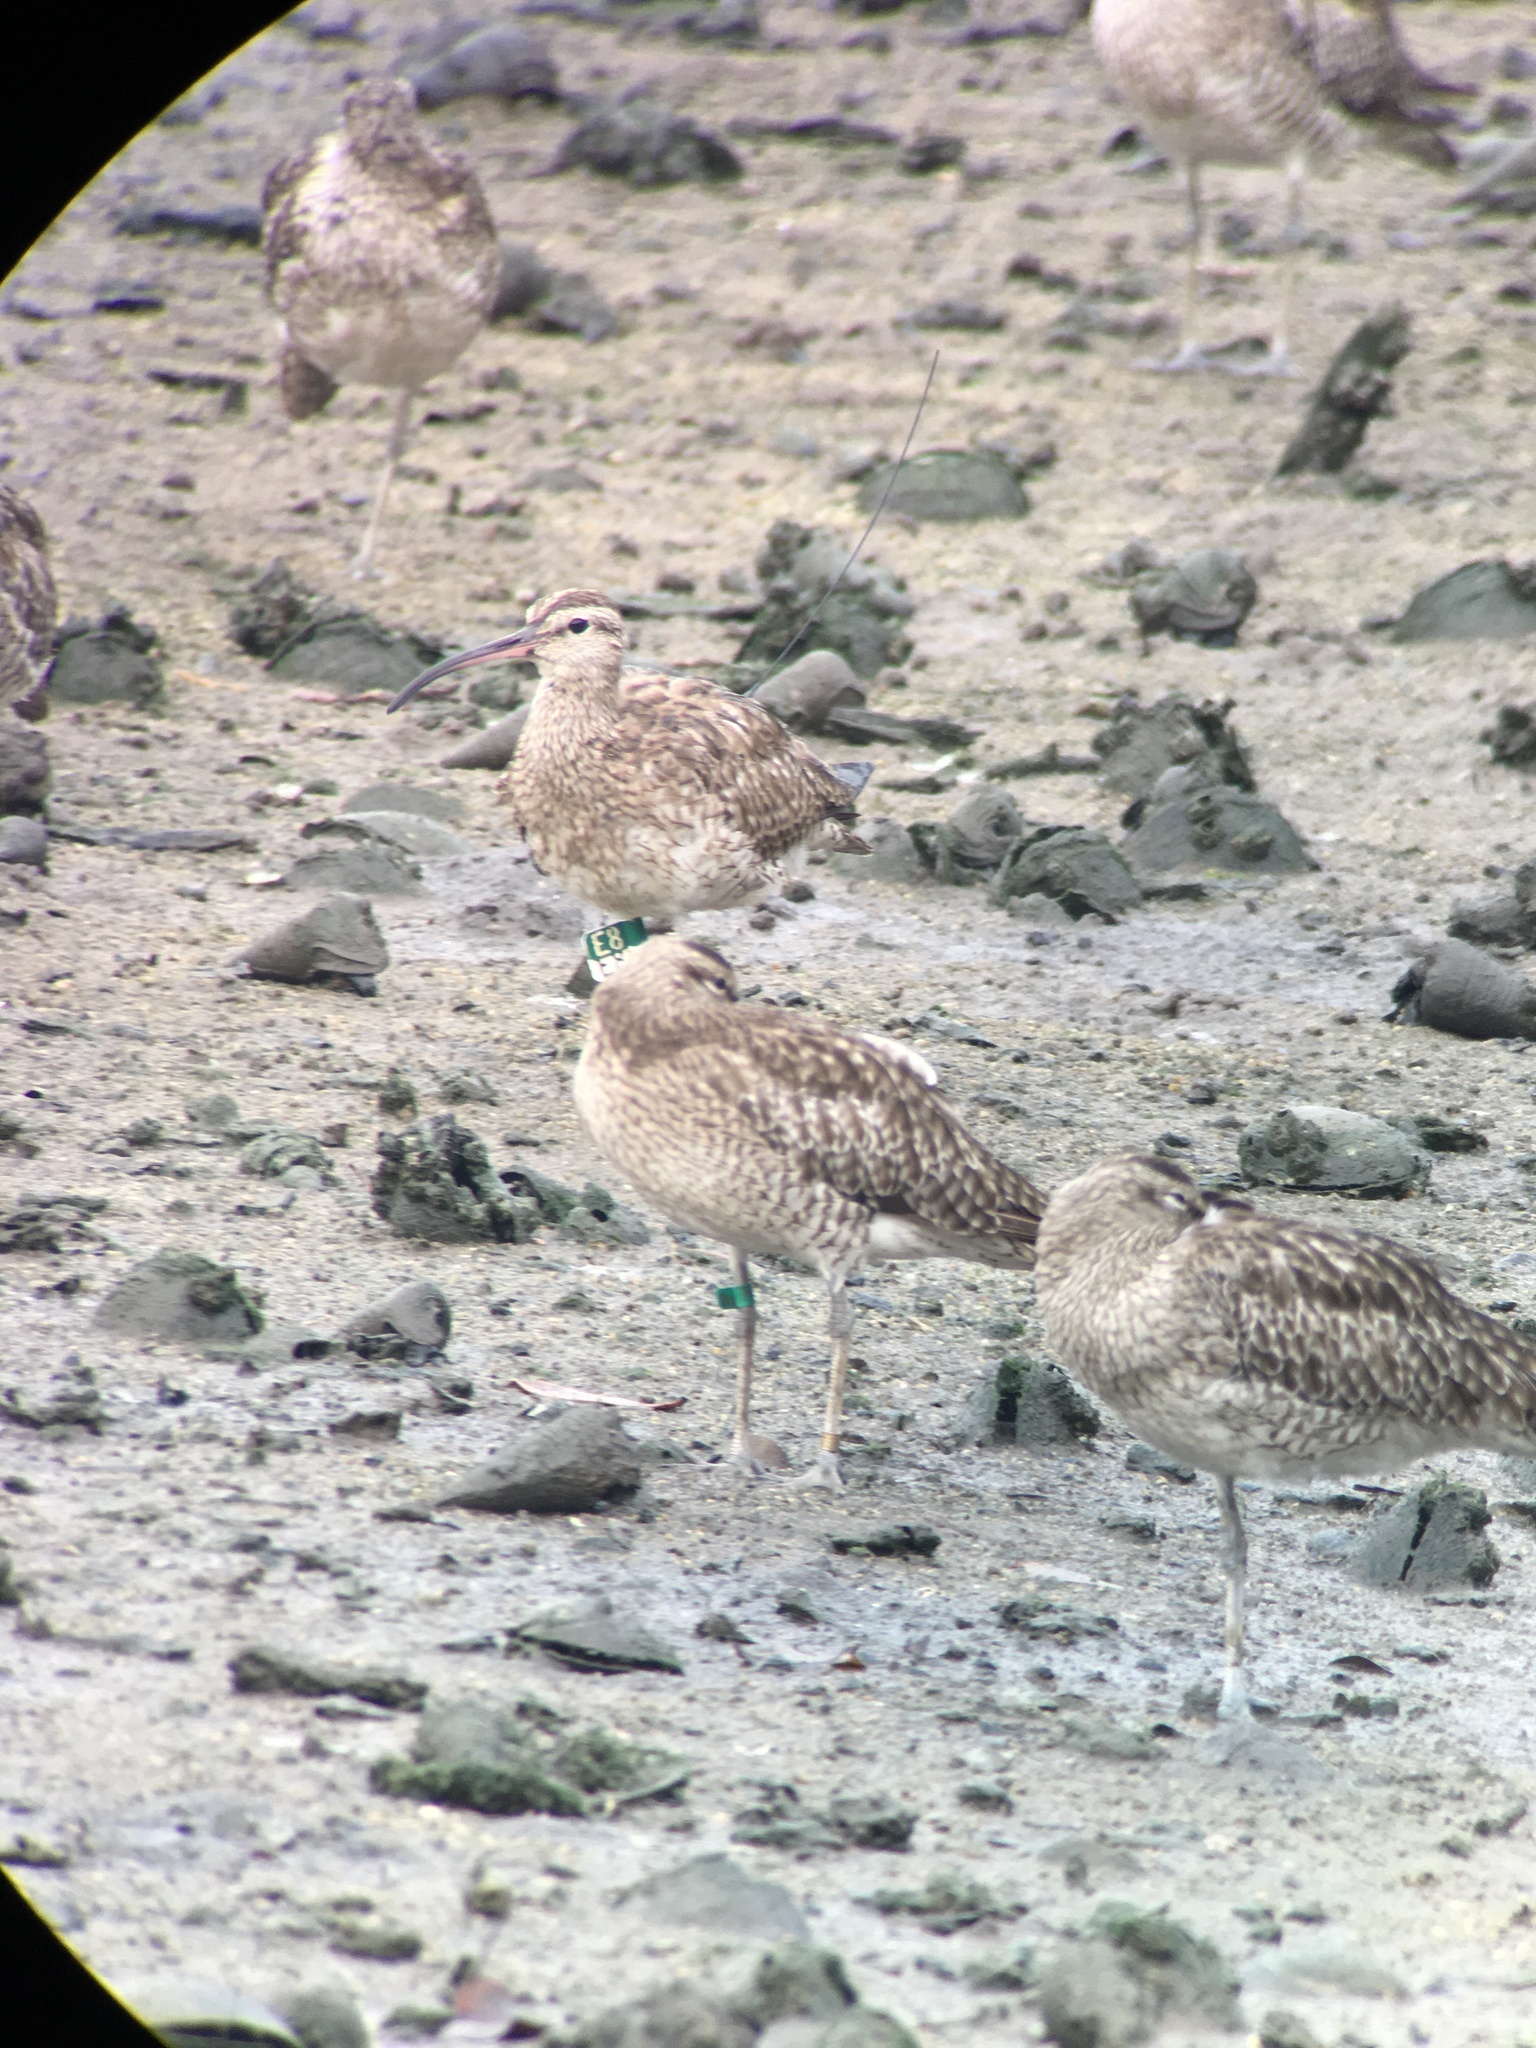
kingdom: Animalia
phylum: Chordata
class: Aves
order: Charadriiformes
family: Scolopacidae
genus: Numenius
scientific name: Numenius phaeopus
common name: Whimbrel
